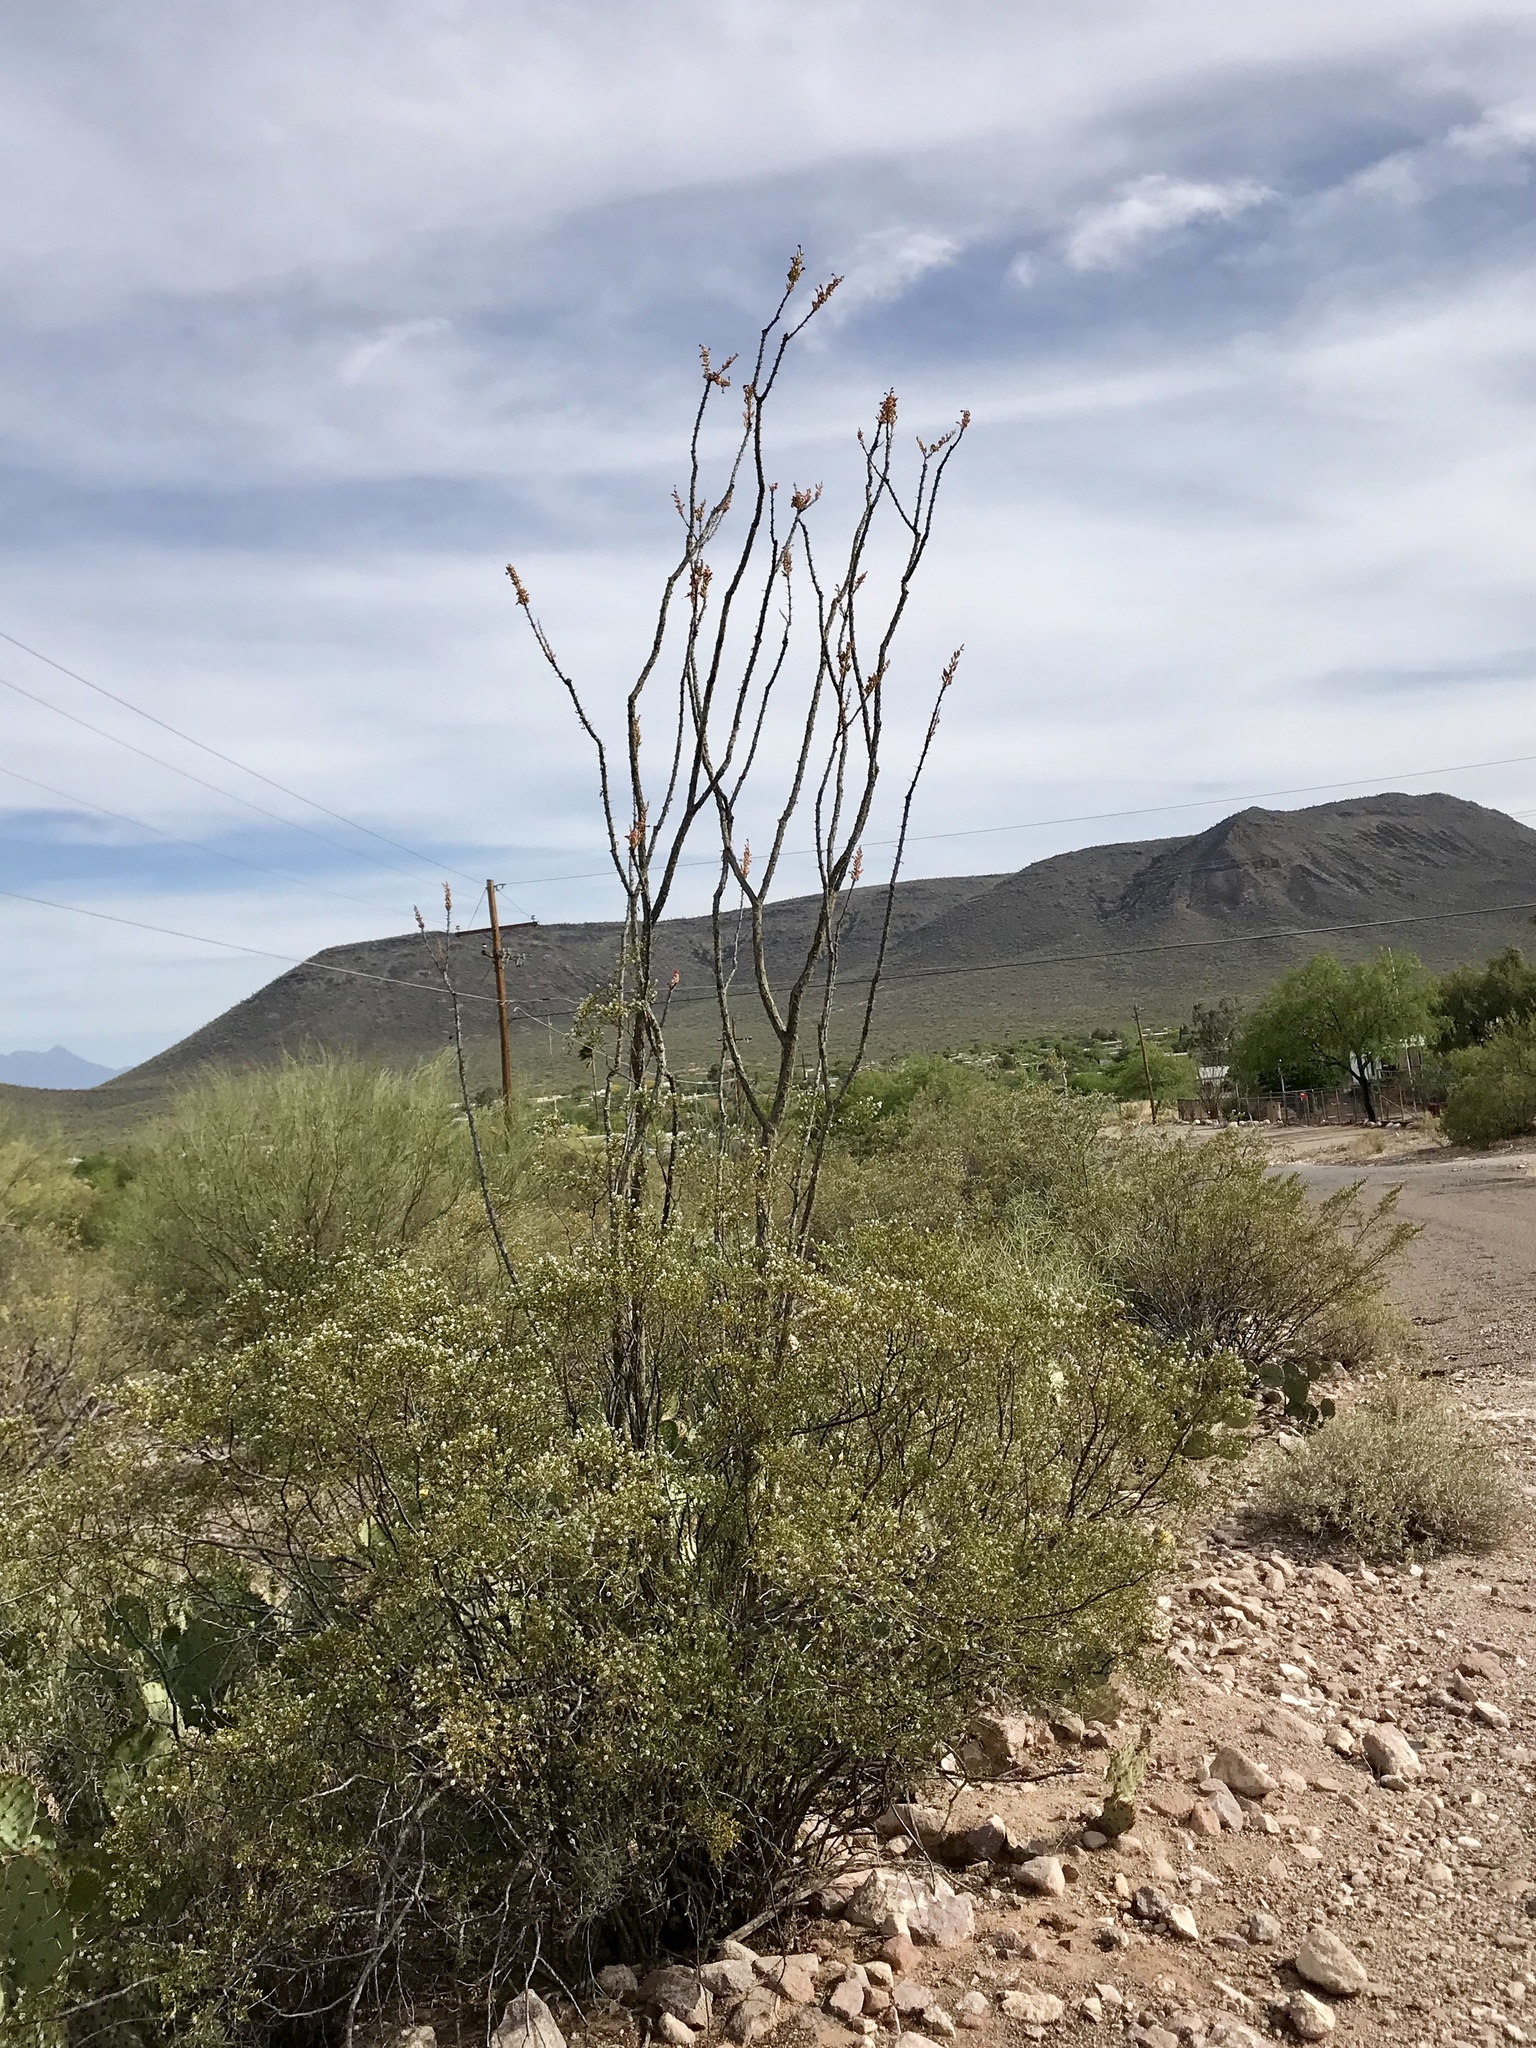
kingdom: Plantae
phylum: Tracheophyta
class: Magnoliopsida
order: Ericales
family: Fouquieriaceae
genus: Fouquieria
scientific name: Fouquieria splendens
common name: Vine-cactus
